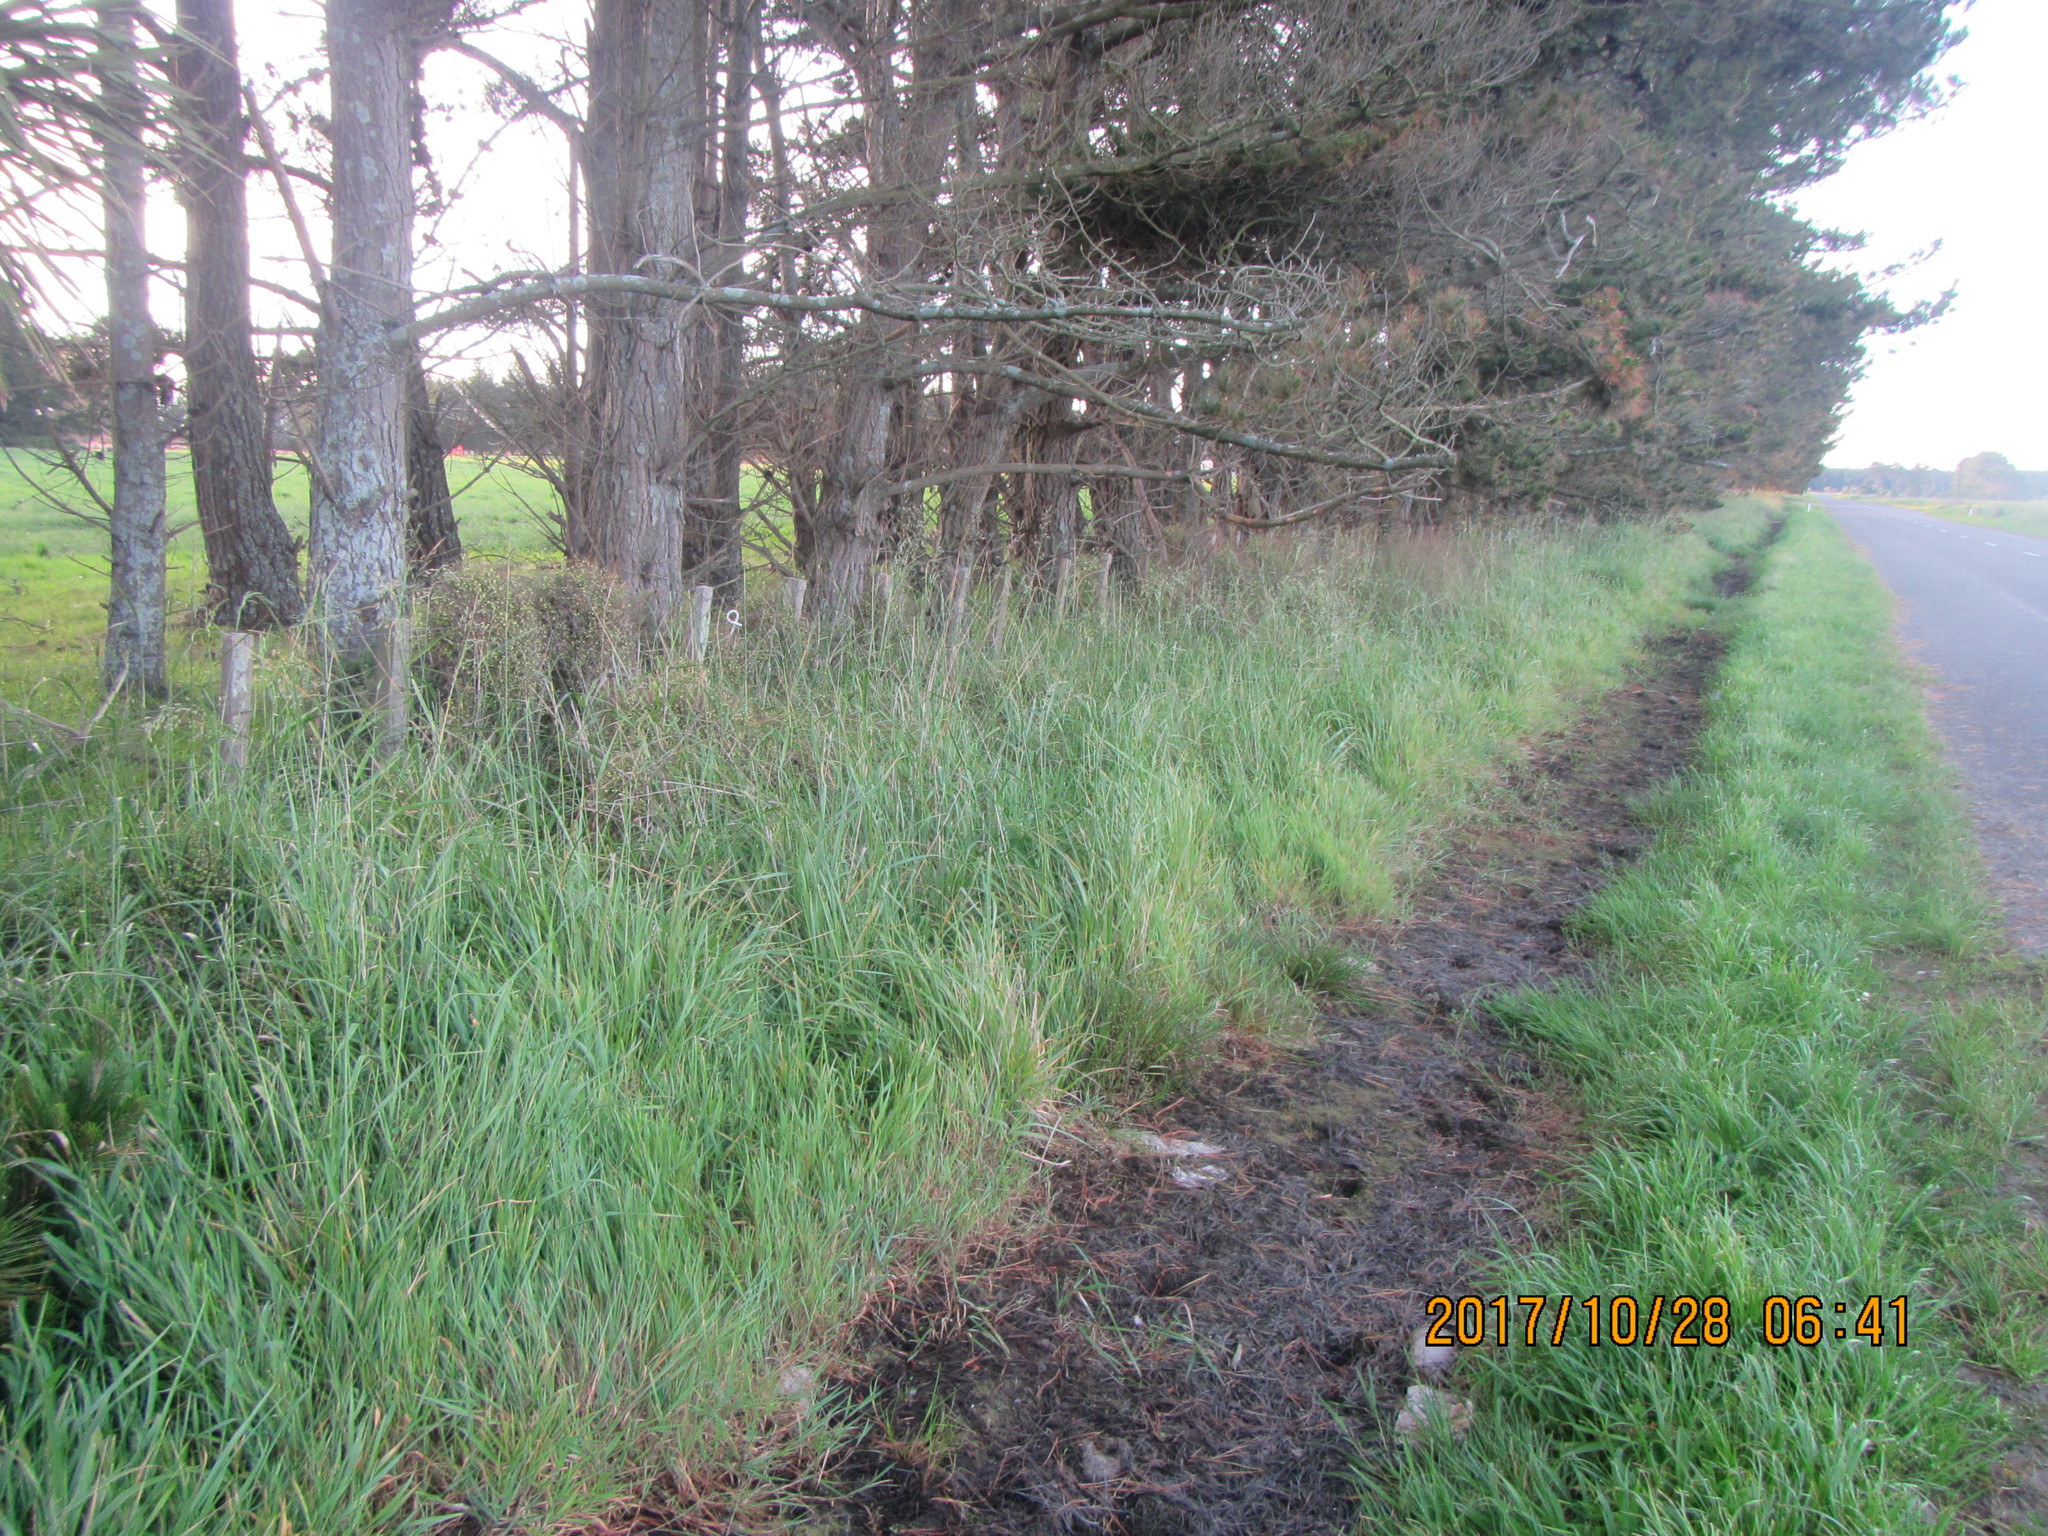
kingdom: Plantae
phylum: Tracheophyta
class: Magnoliopsida
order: Caryophyllales
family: Polygonaceae
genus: Muehlenbeckia
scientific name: Muehlenbeckia complexa
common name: Wireplant
